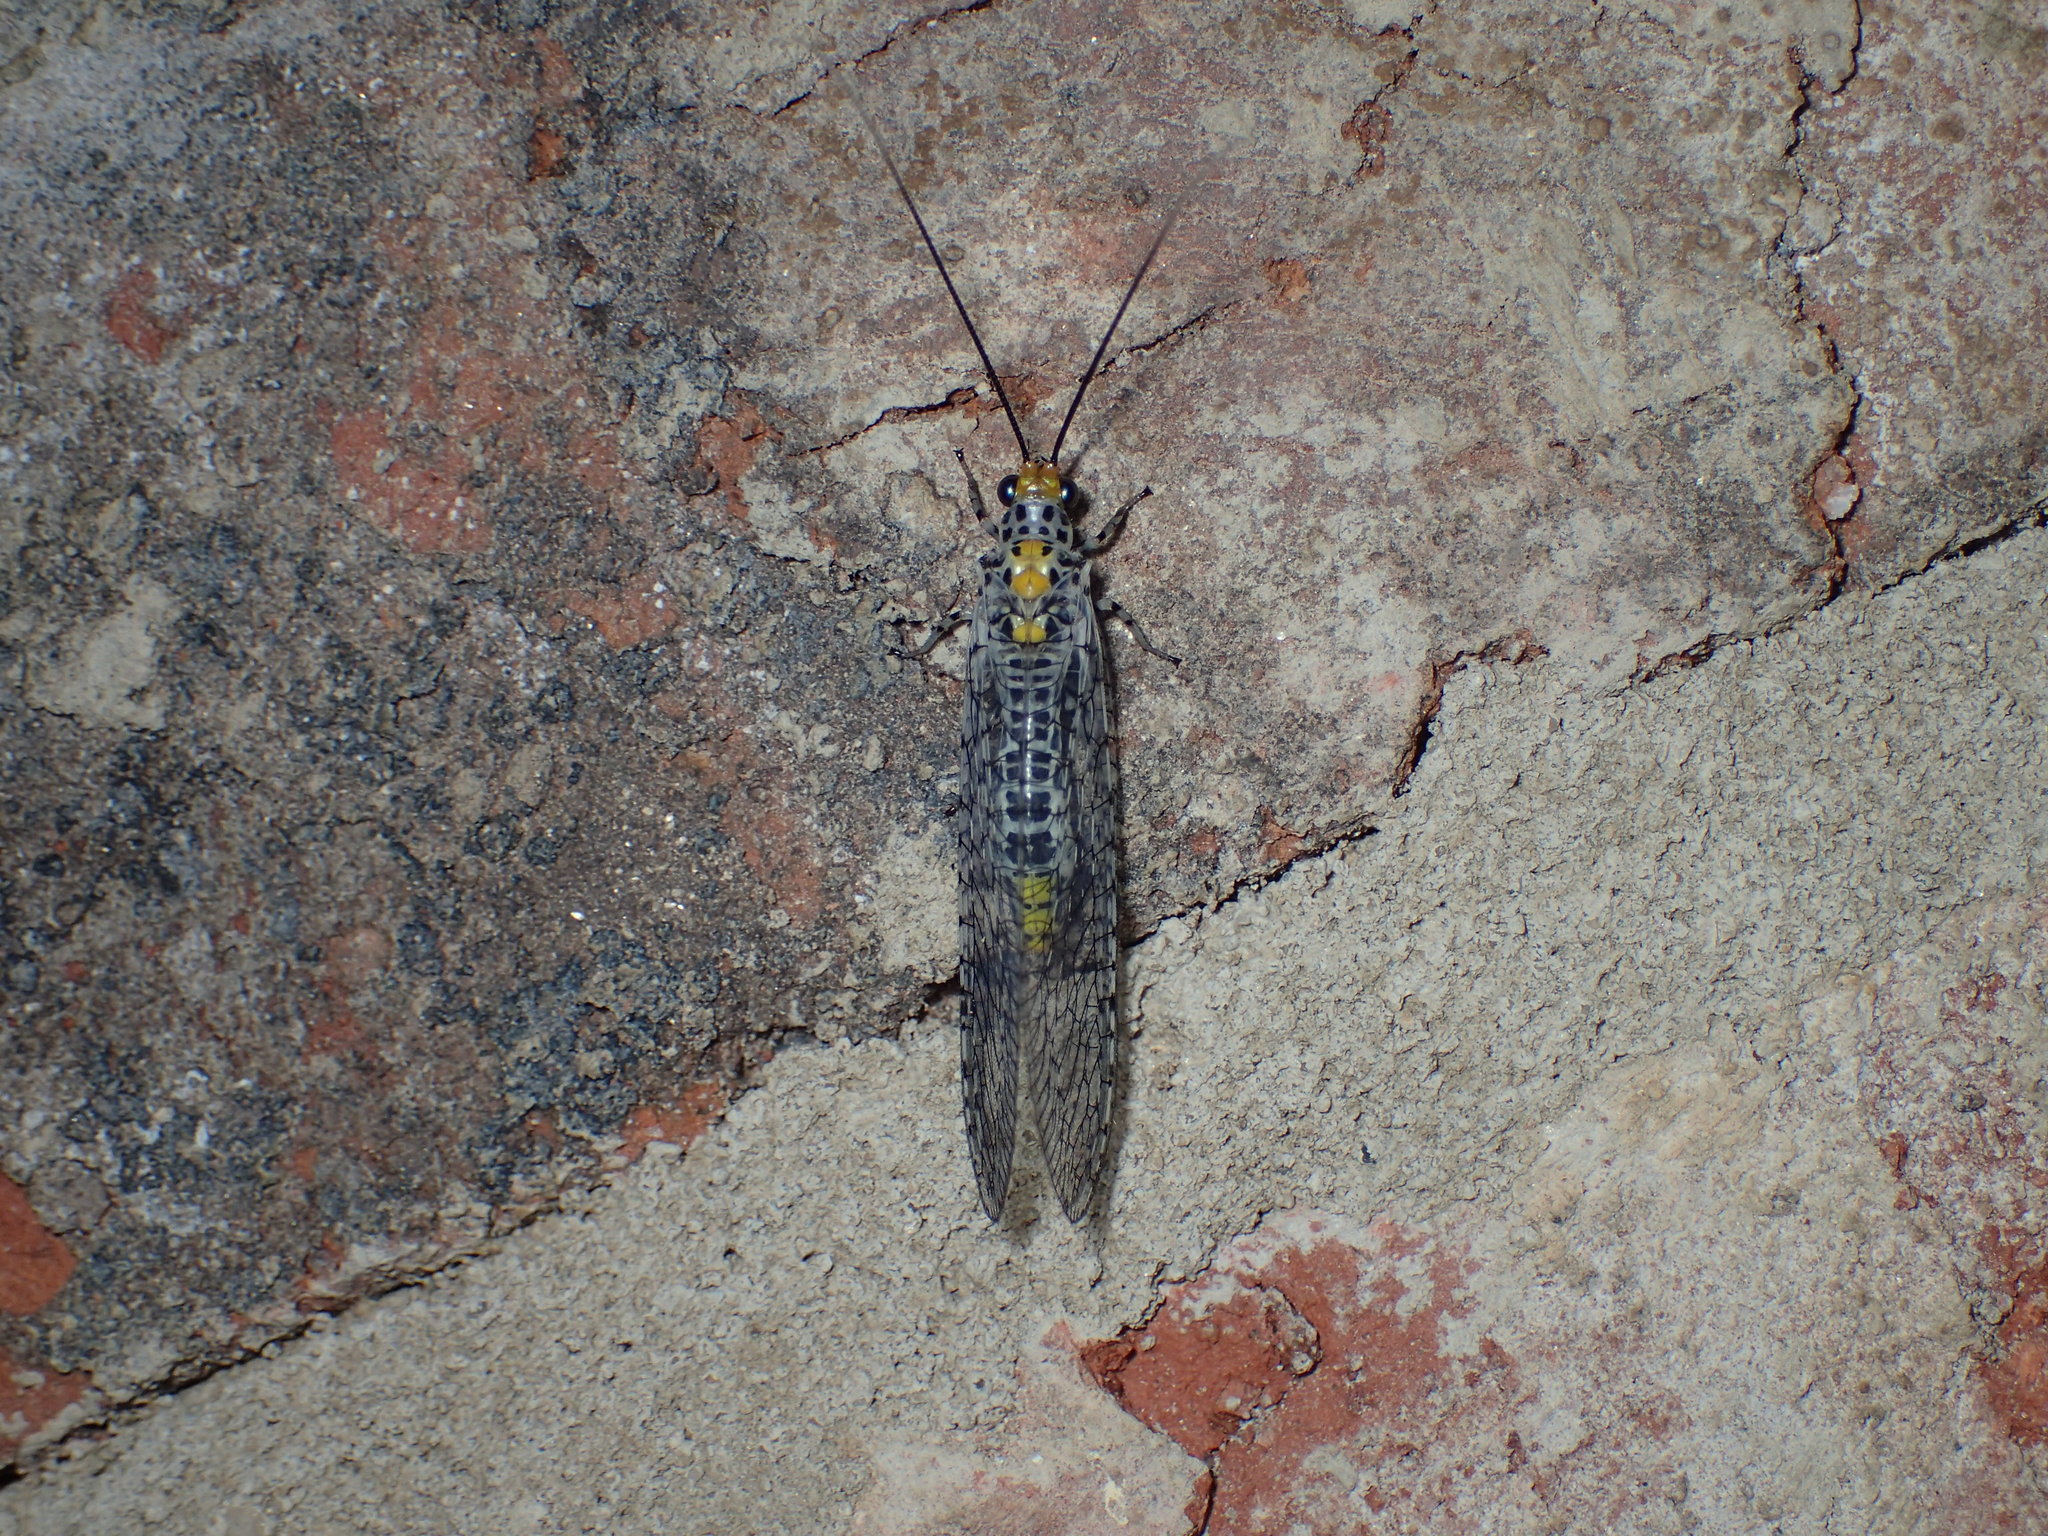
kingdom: Animalia
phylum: Arthropoda
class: Insecta
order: Neuroptera
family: Chrysopidae
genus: Abachrysa
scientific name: Abachrysa eureka
